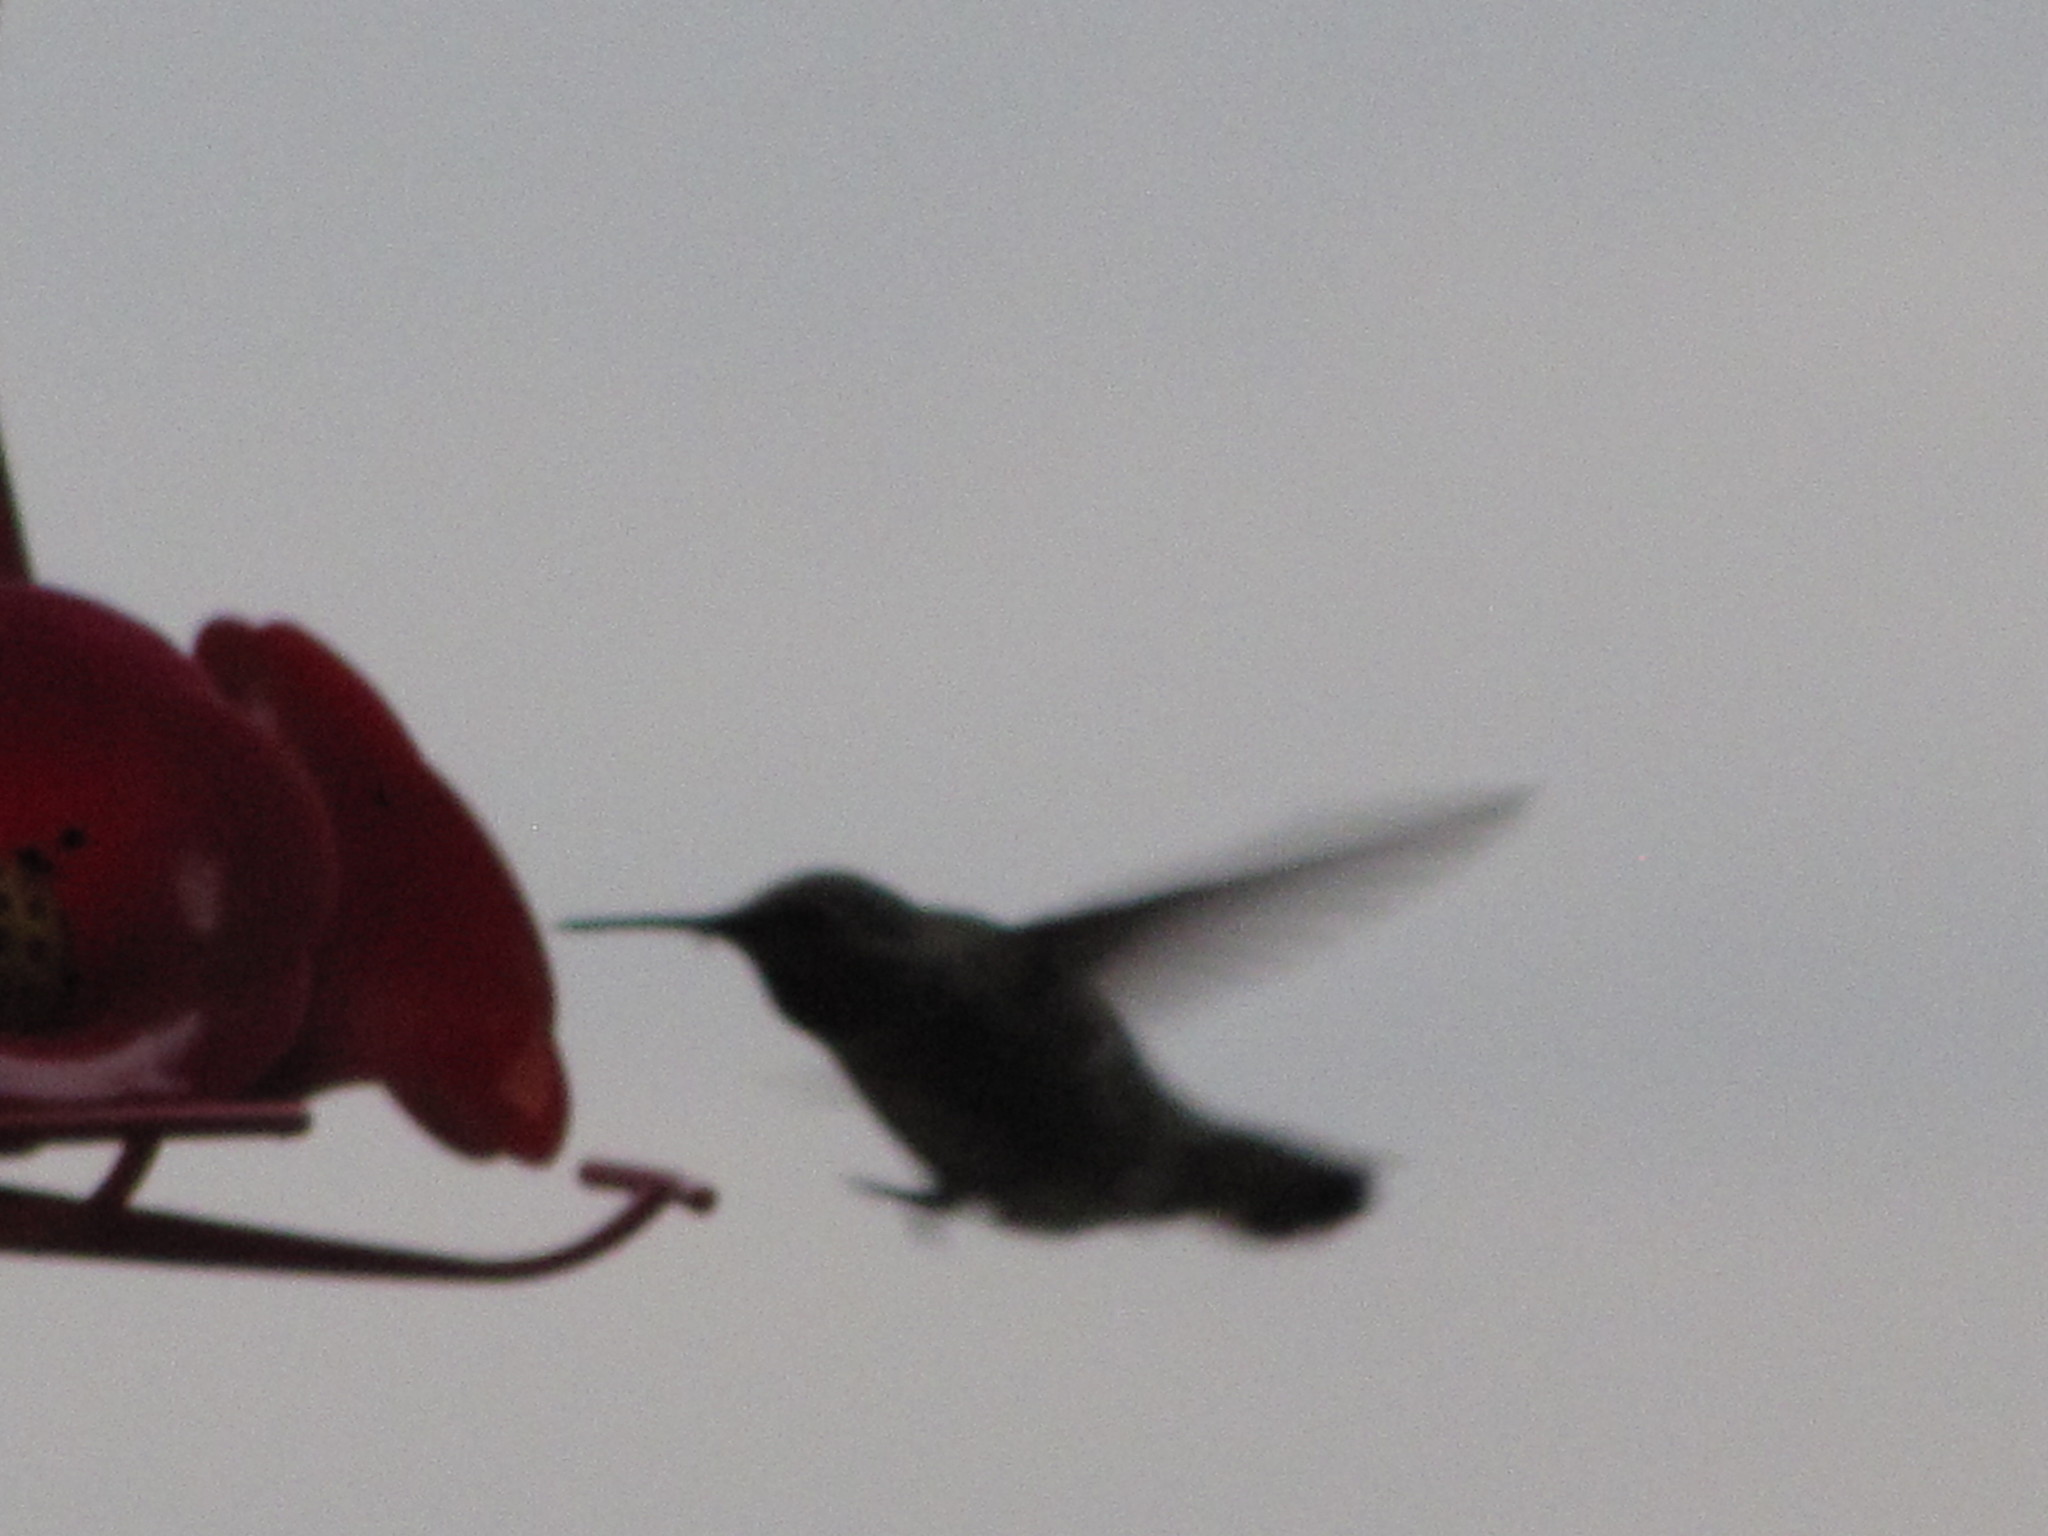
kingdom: Animalia
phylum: Chordata
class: Aves
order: Apodiformes
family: Trochilidae
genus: Calypte
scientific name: Calypte anna
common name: Anna's hummingbird
